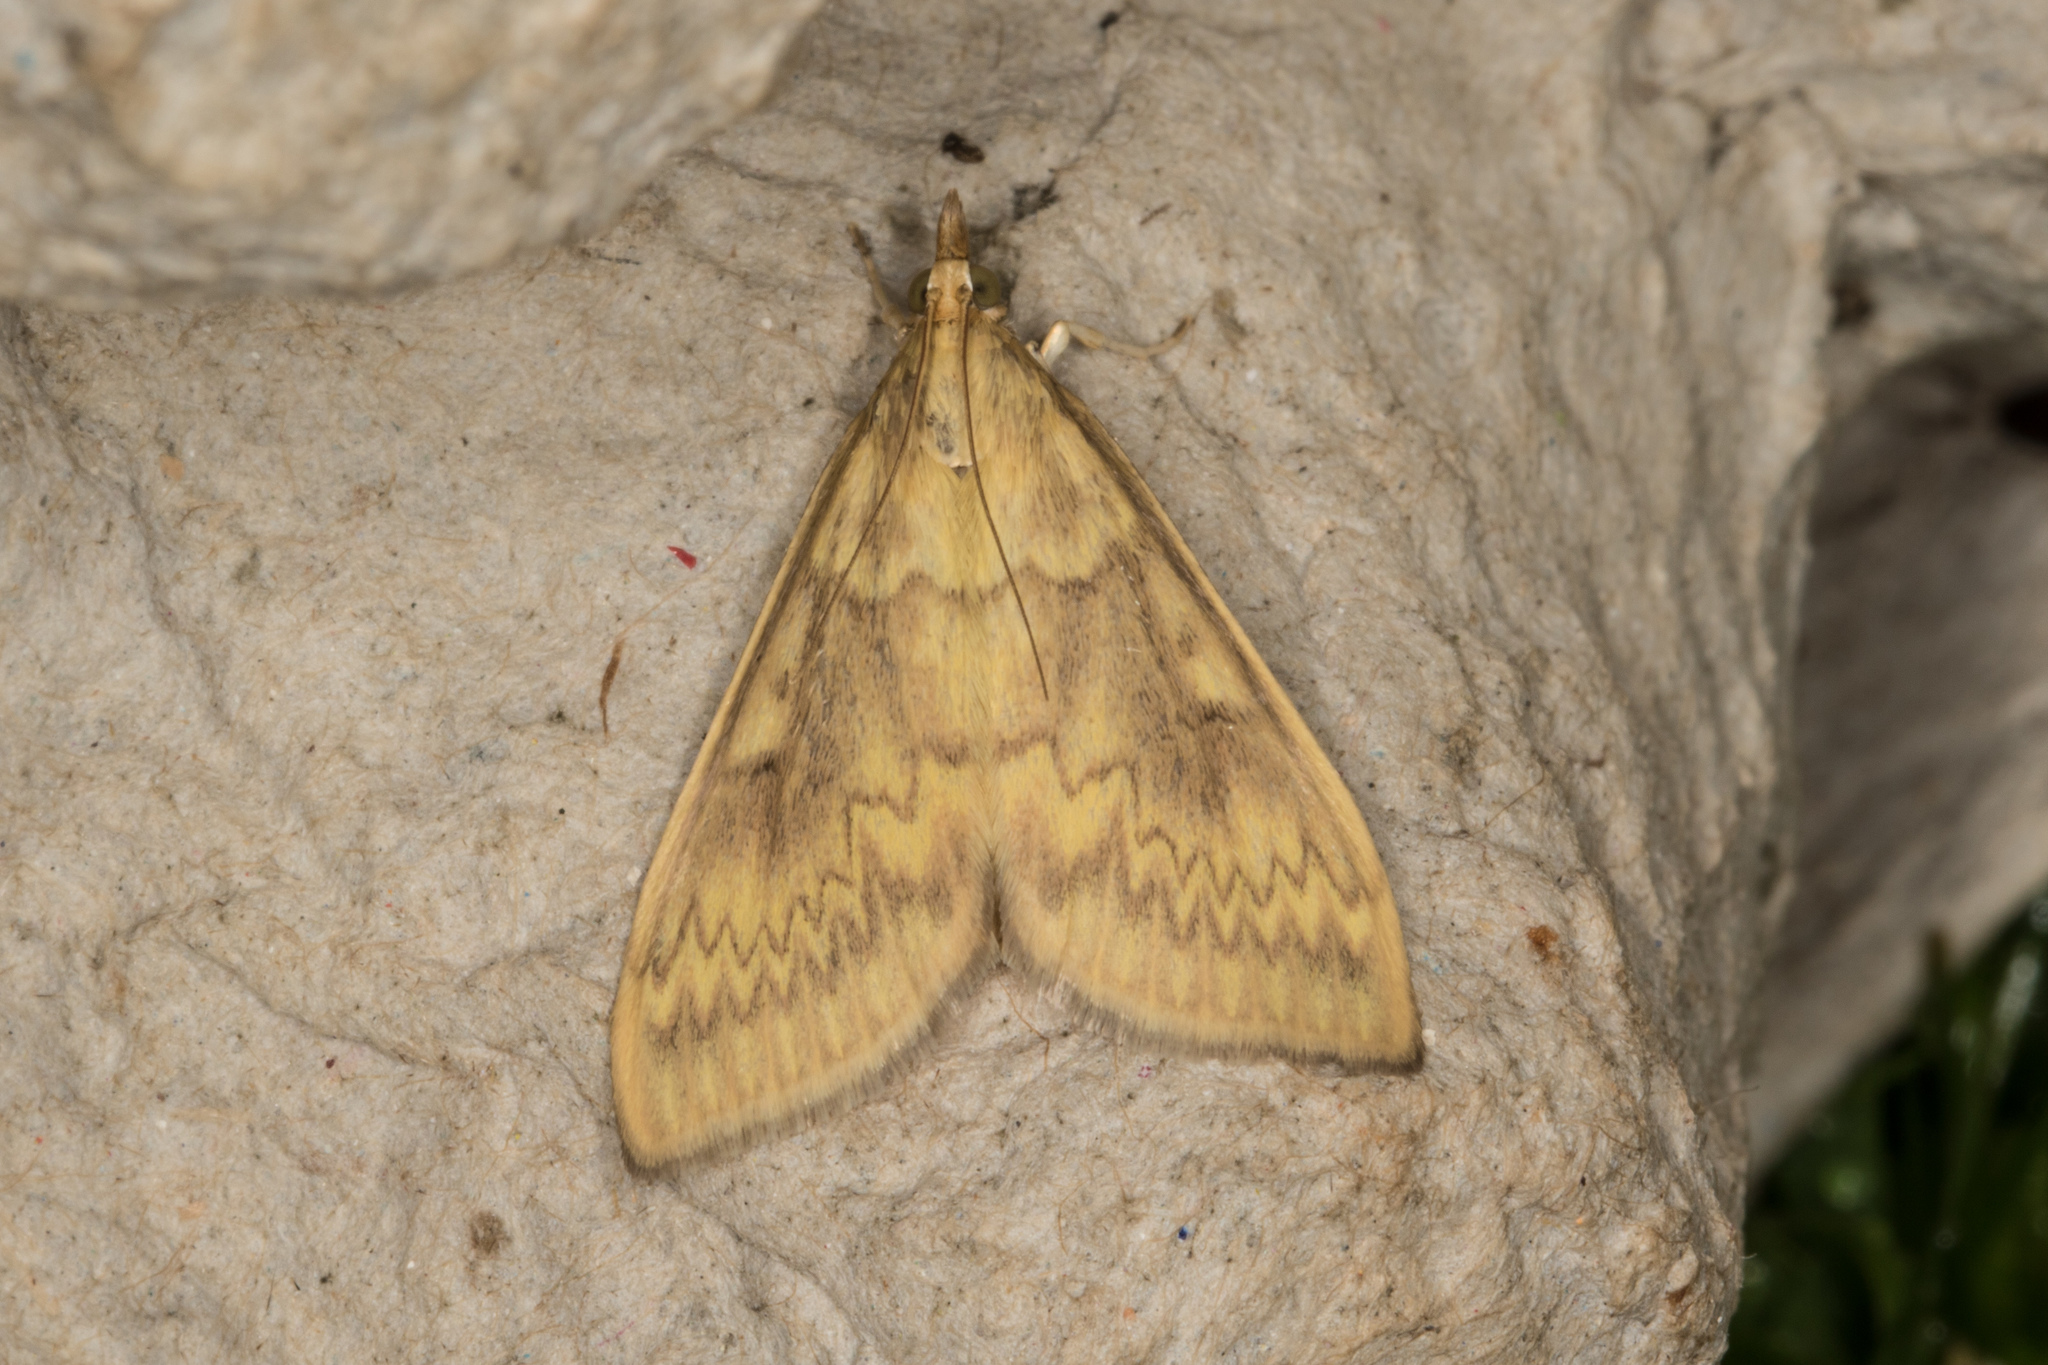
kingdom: Animalia
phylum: Arthropoda
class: Insecta
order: Lepidoptera
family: Crambidae
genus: Ostrinia
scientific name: Ostrinia nubilalis
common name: European corn borer
